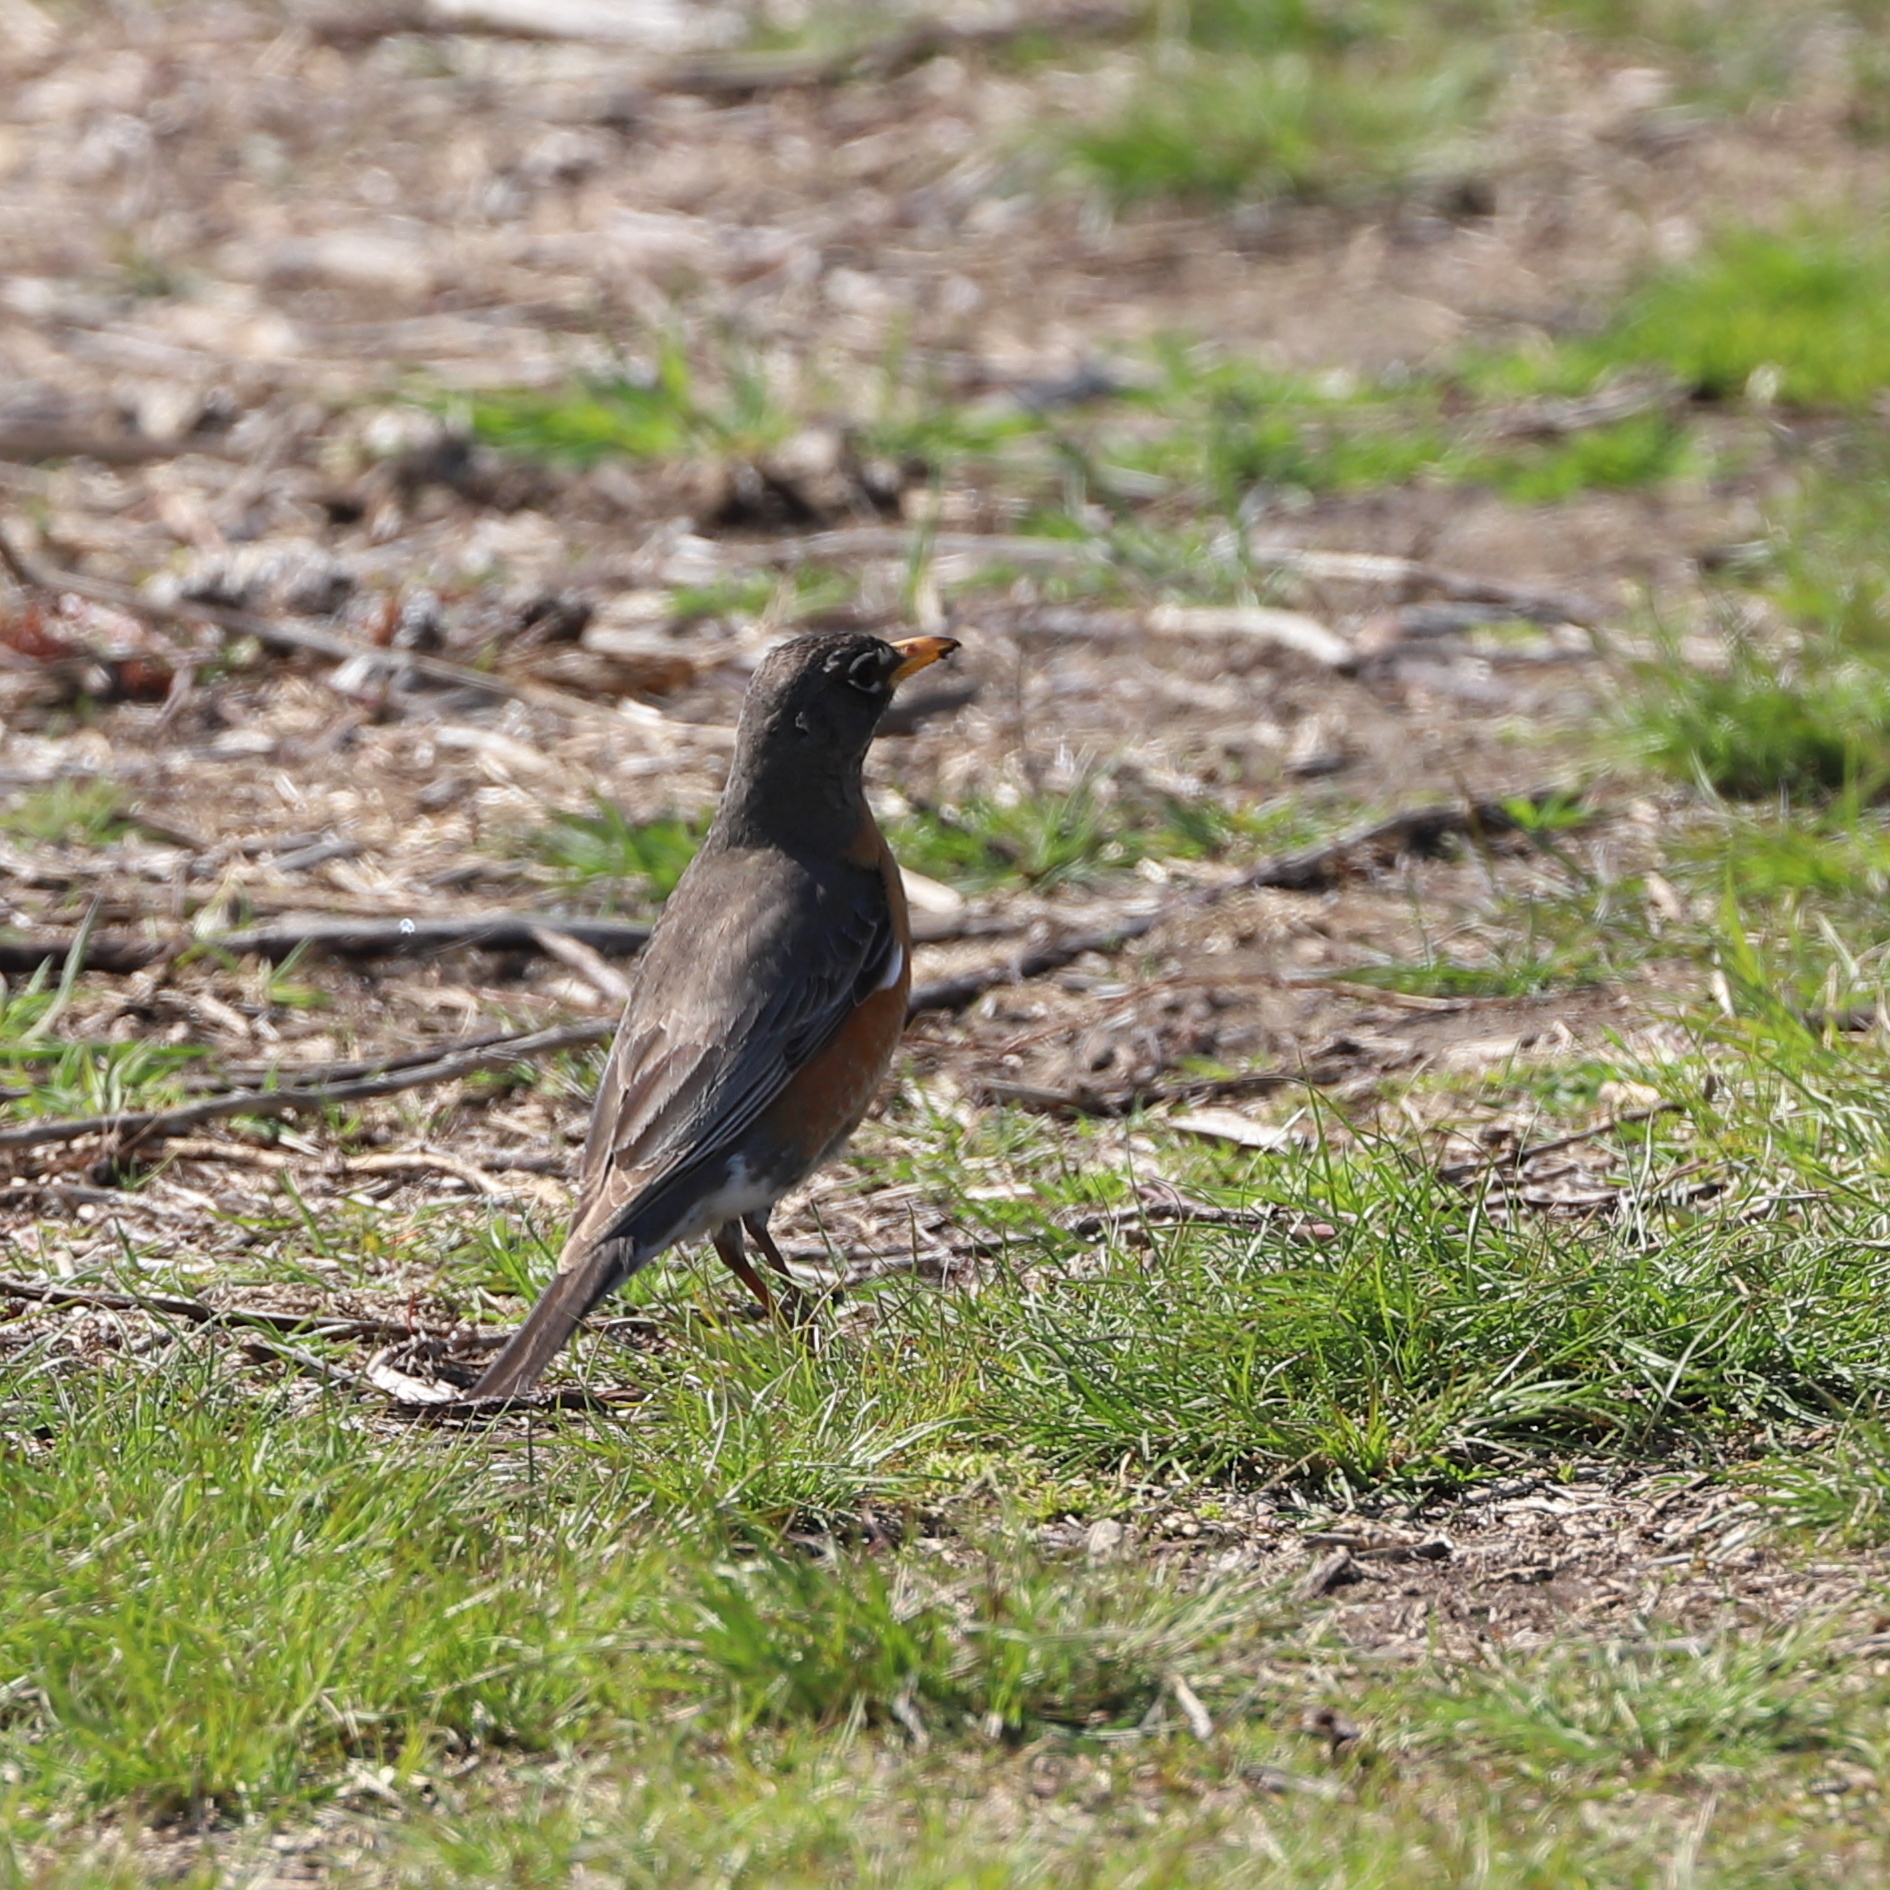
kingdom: Animalia
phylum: Chordata
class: Aves
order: Passeriformes
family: Turdidae
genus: Turdus
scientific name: Turdus migratorius
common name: American robin
